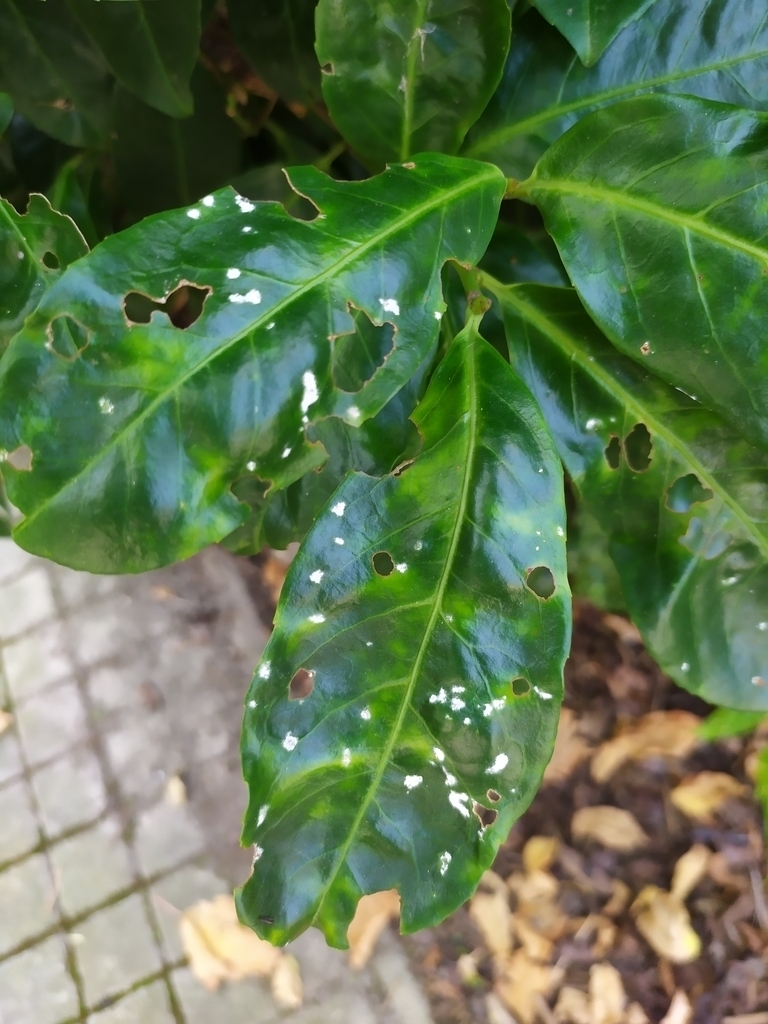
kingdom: Fungi
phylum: Ascomycota
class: Dothideomycetes
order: Pleosporales
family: Phaeosphaeriaceae
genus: Ampelomyces
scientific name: Ampelomyces quisqualis
